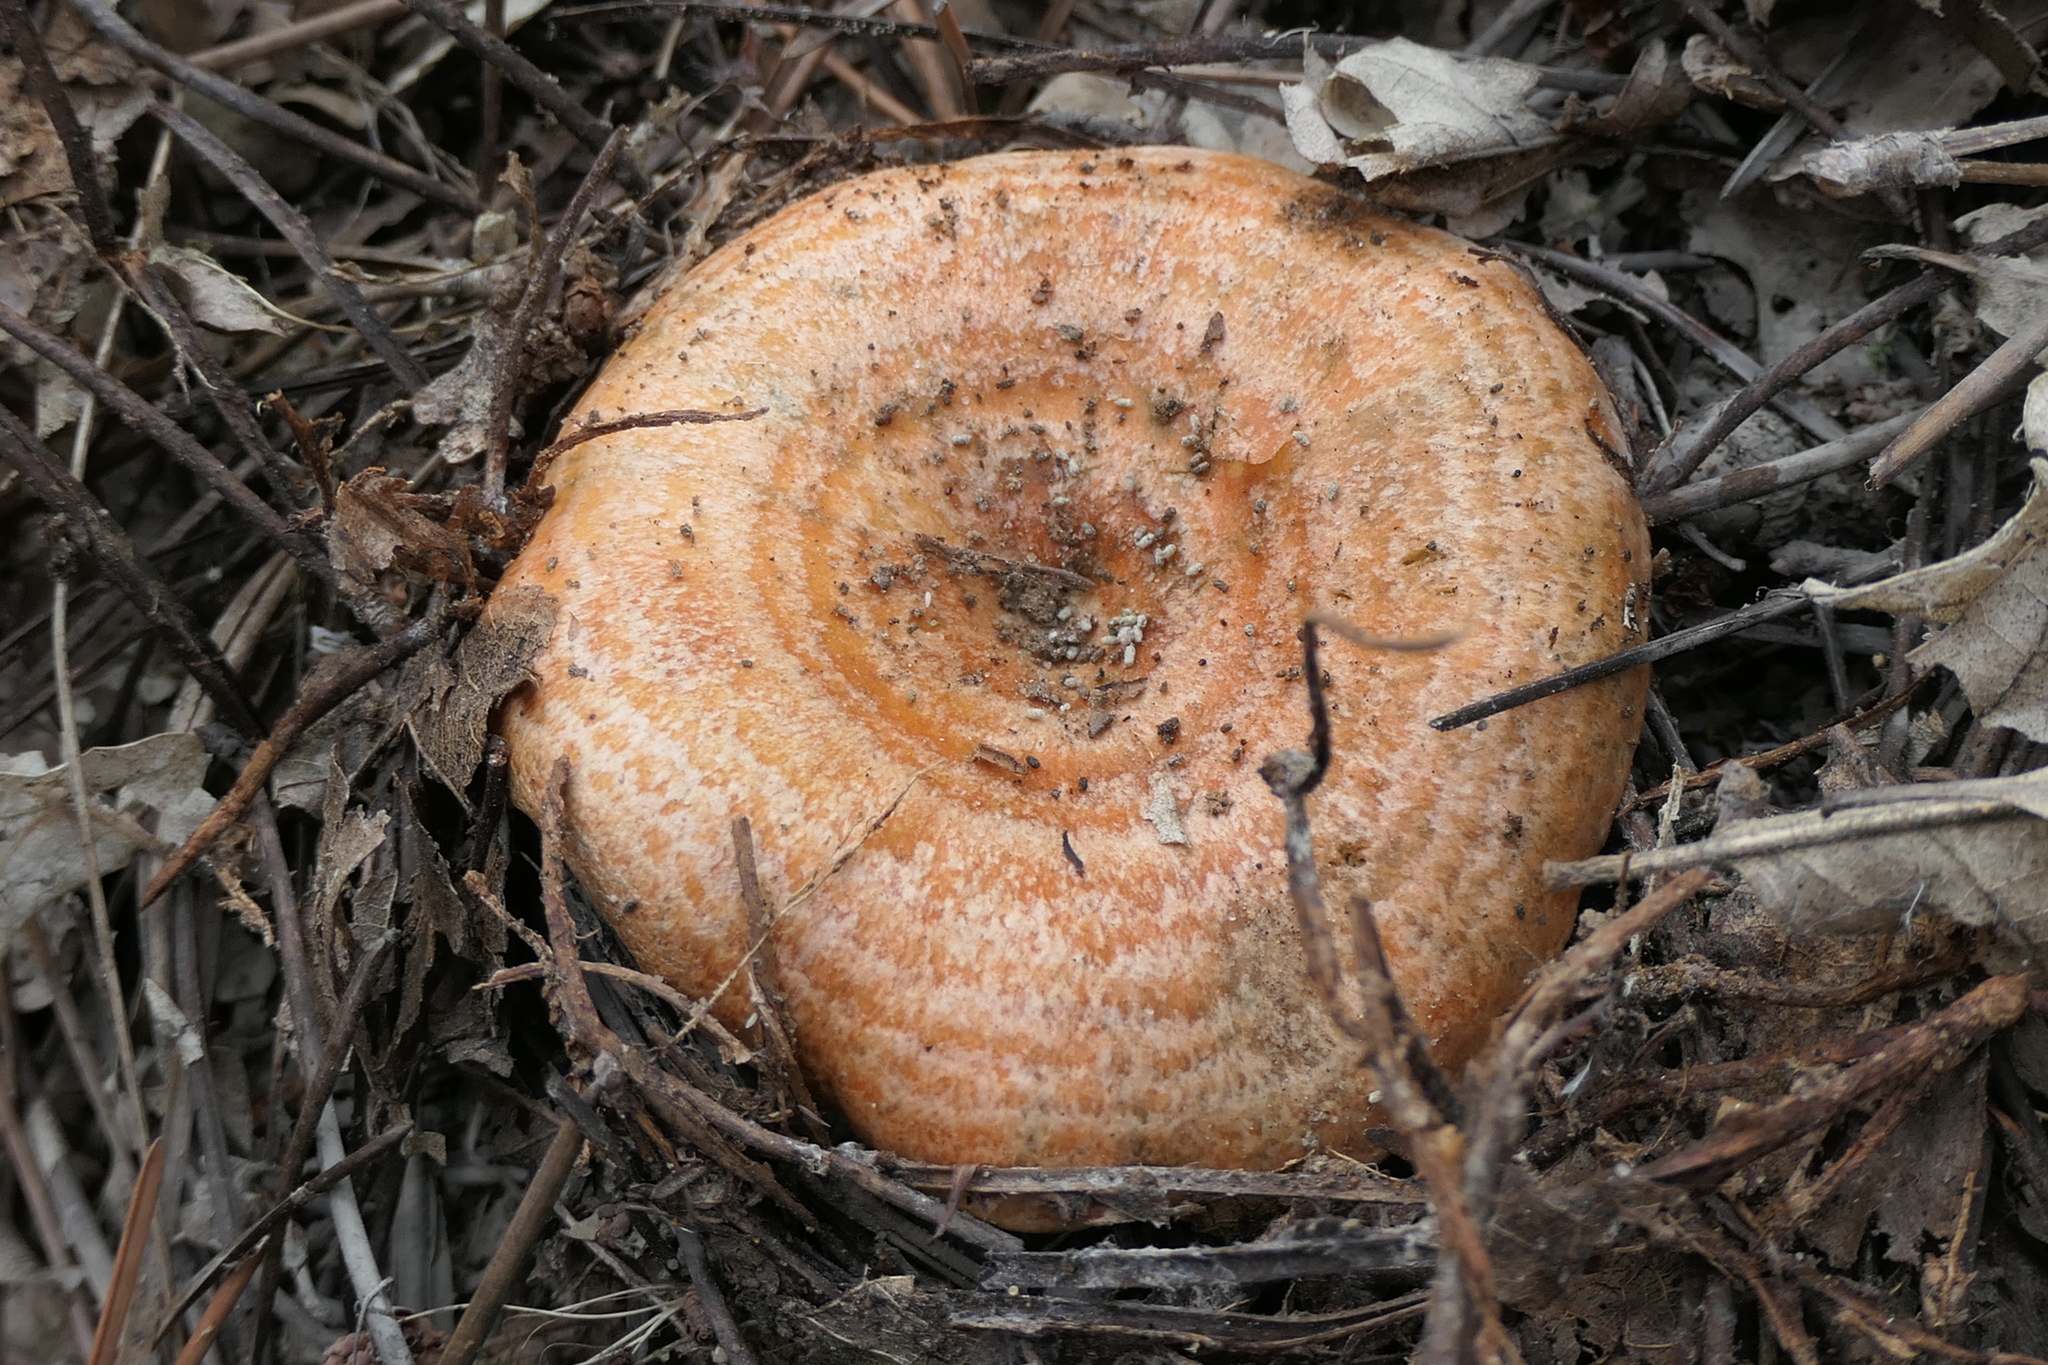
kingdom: Fungi
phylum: Basidiomycota
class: Agaricomycetes
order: Russulales
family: Russulaceae
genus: Lactarius
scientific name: Lactarius deliciosus
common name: Saffron milk-cap
